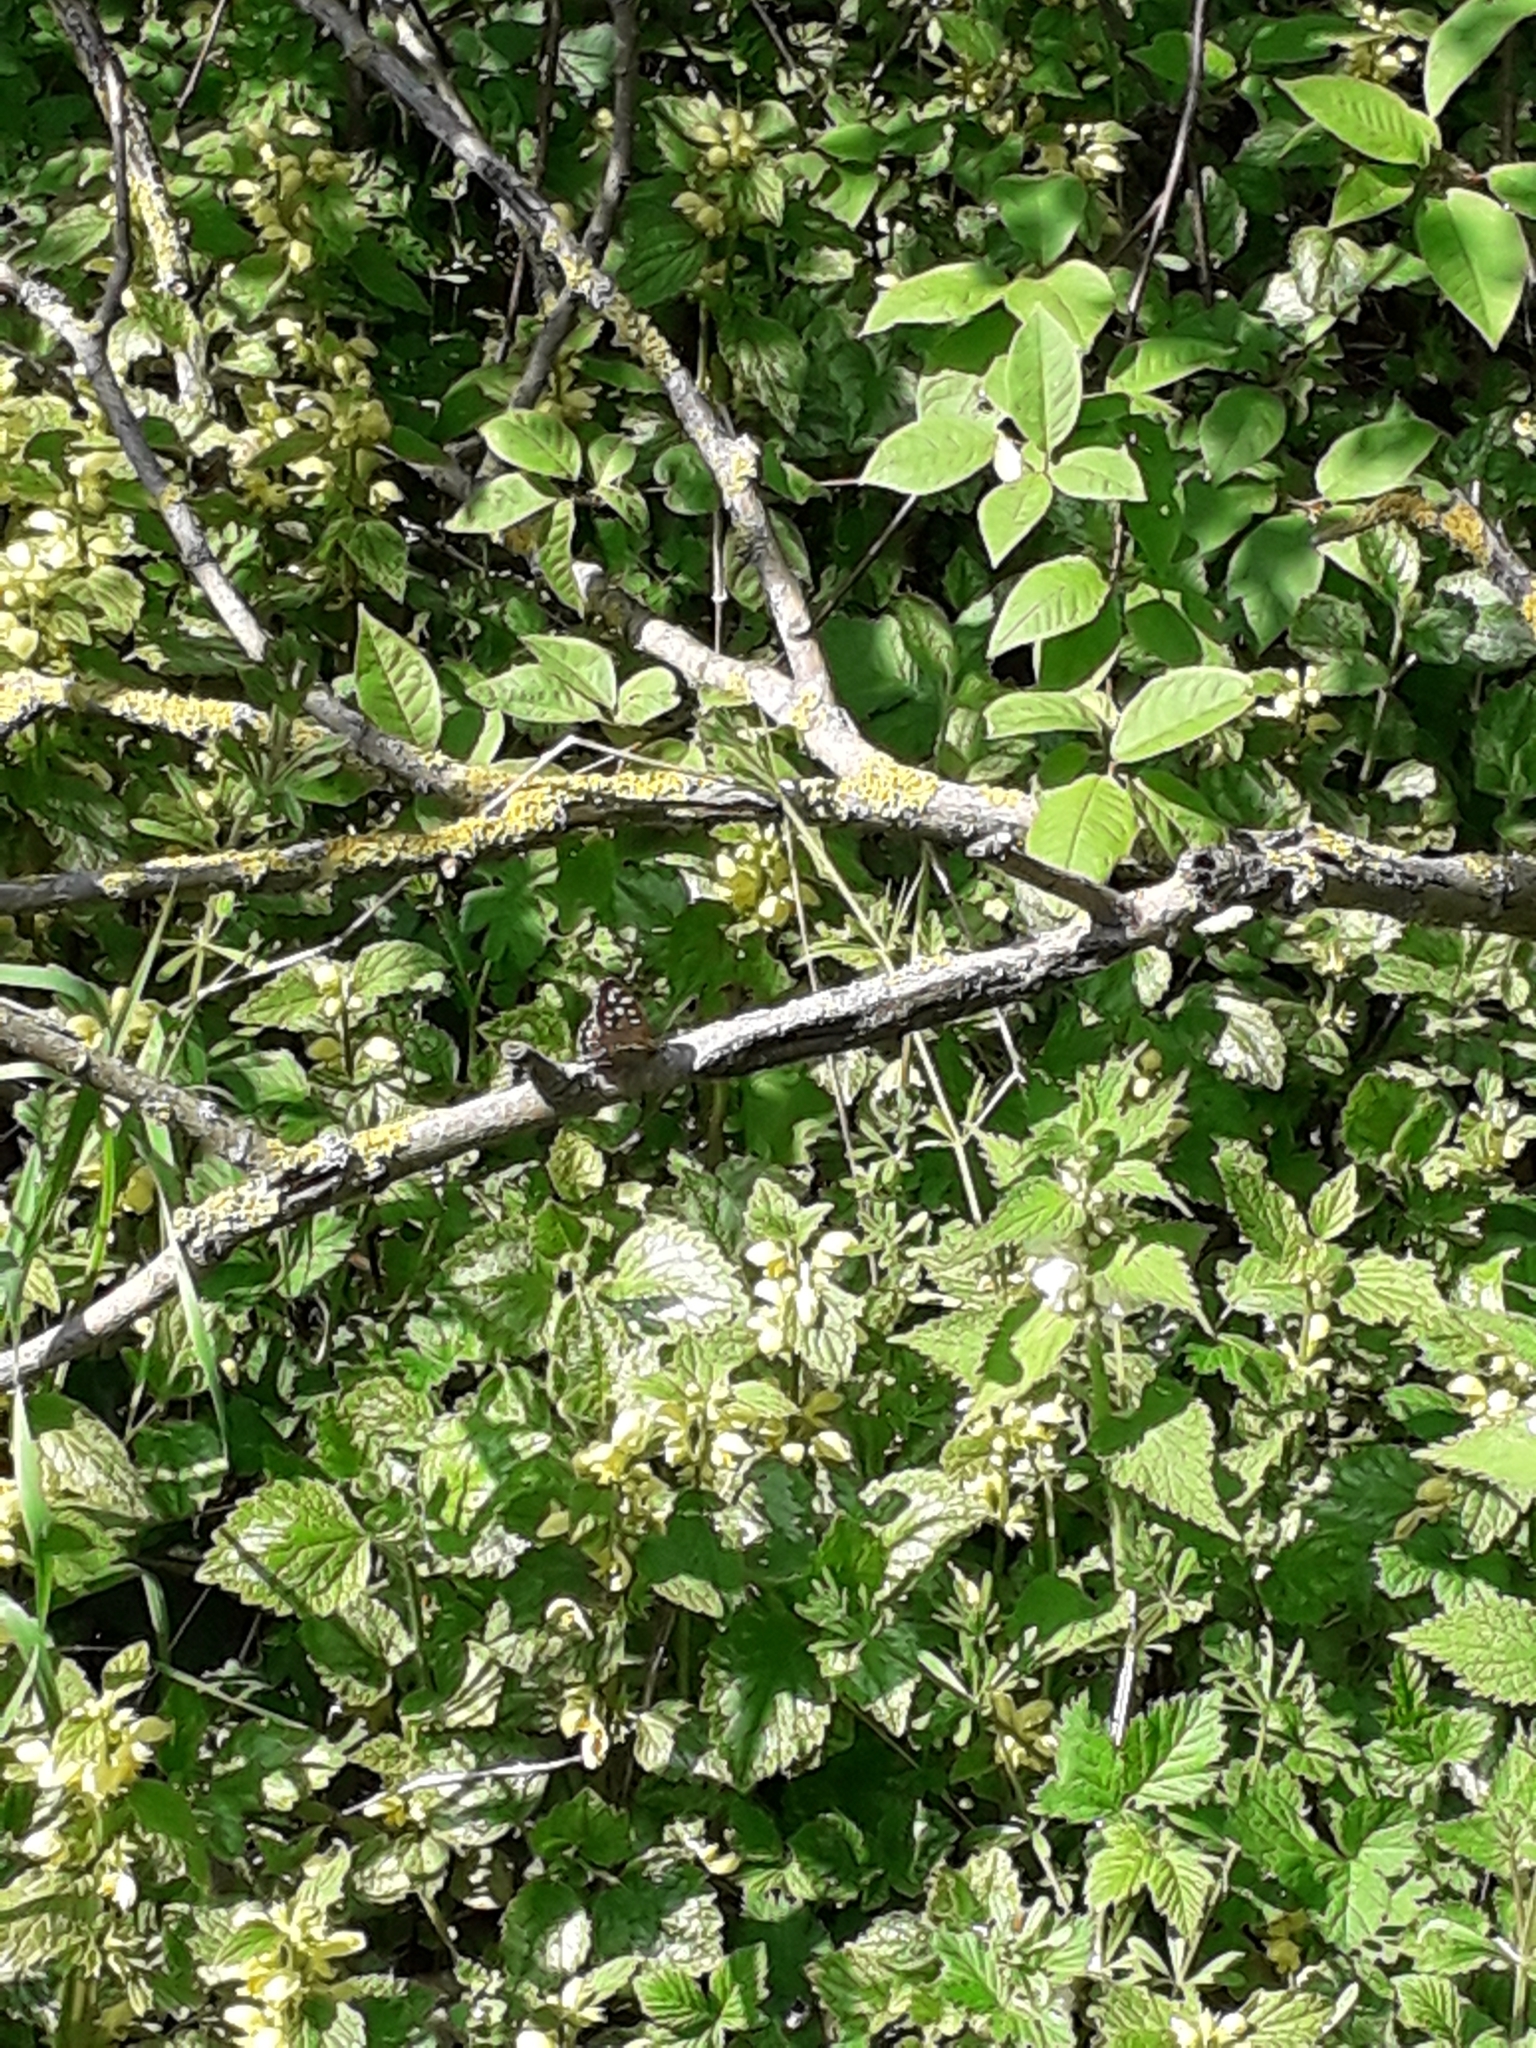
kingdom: Animalia
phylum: Arthropoda
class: Insecta
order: Lepidoptera
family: Nymphalidae
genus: Pararge
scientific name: Pararge aegeria
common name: Speckled wood
